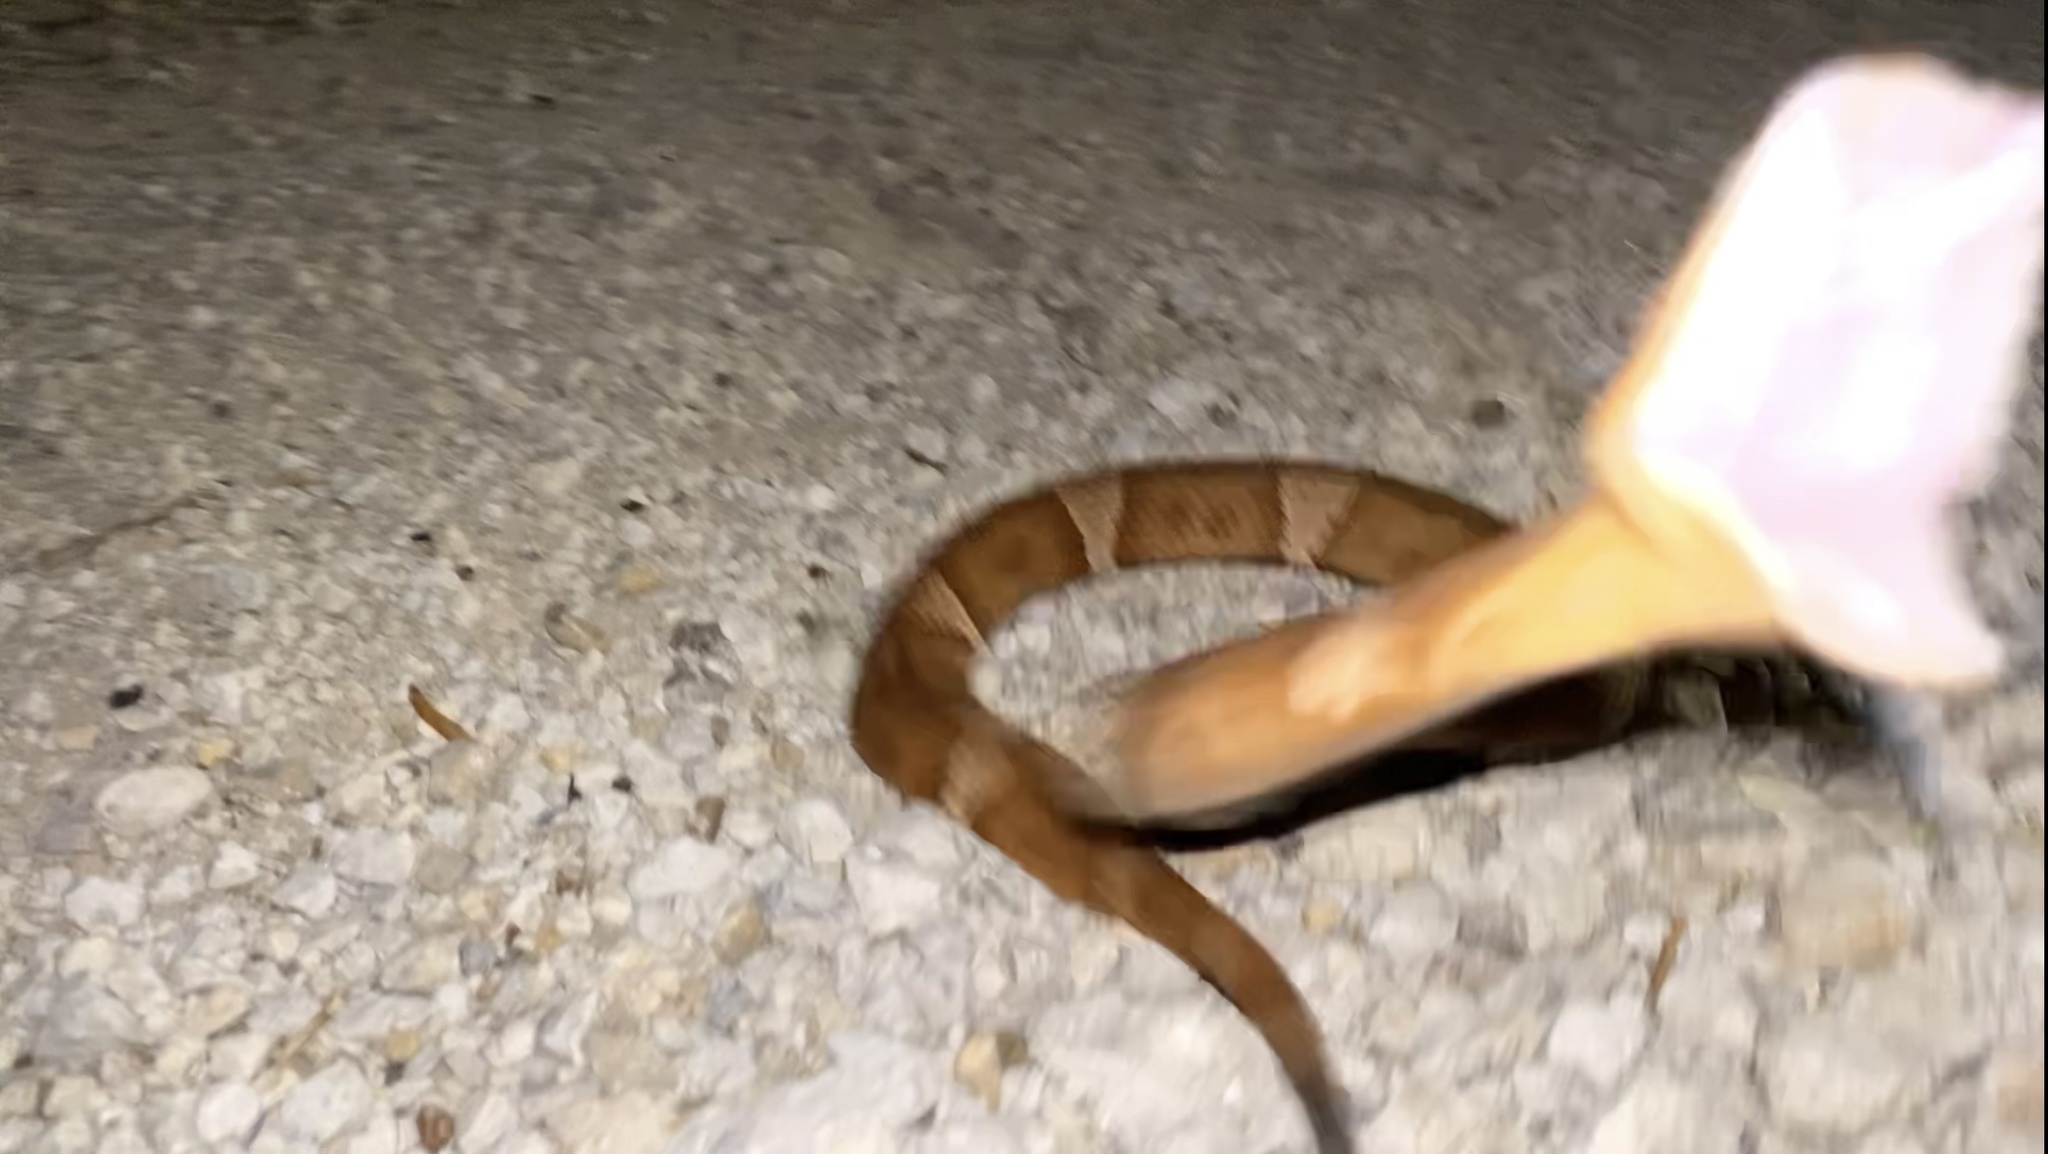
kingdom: Animalia
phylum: Chordata
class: Squamata
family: Viperidae
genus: Agkistrodon
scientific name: Agkistrodon laticinctus
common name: Broad-banded copperhead
